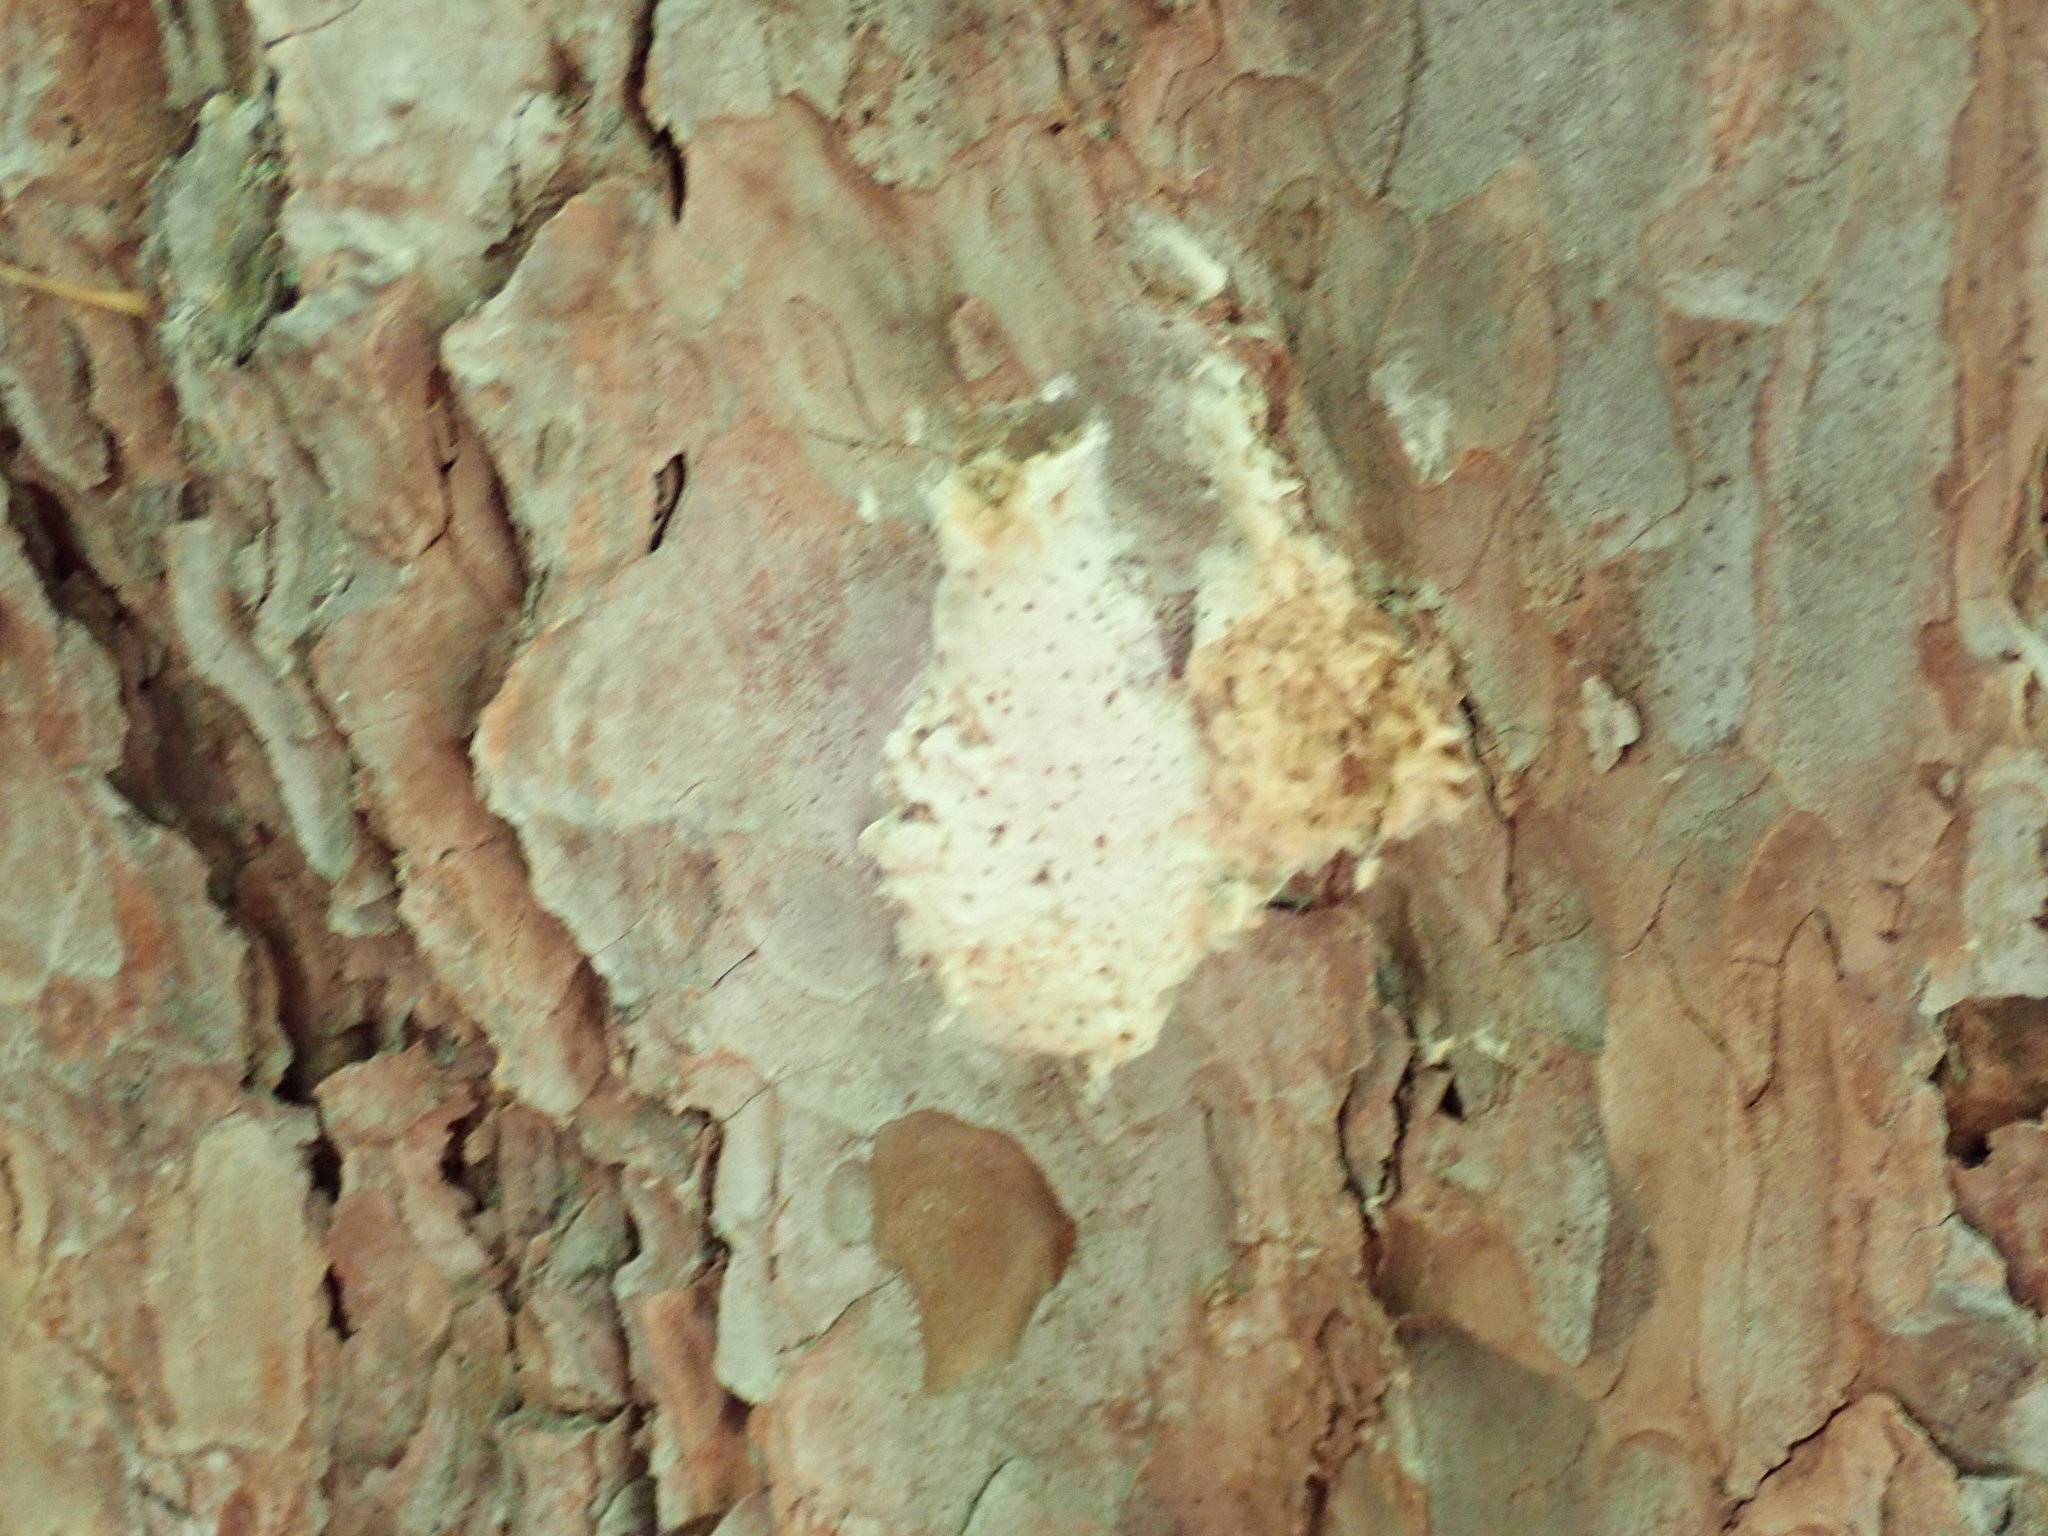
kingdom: Animalia
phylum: Arthropoda
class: Insecta
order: Lepidoptera
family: Erebidae
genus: Lymantria
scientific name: Lymantria dispar
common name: Gypsy moth
